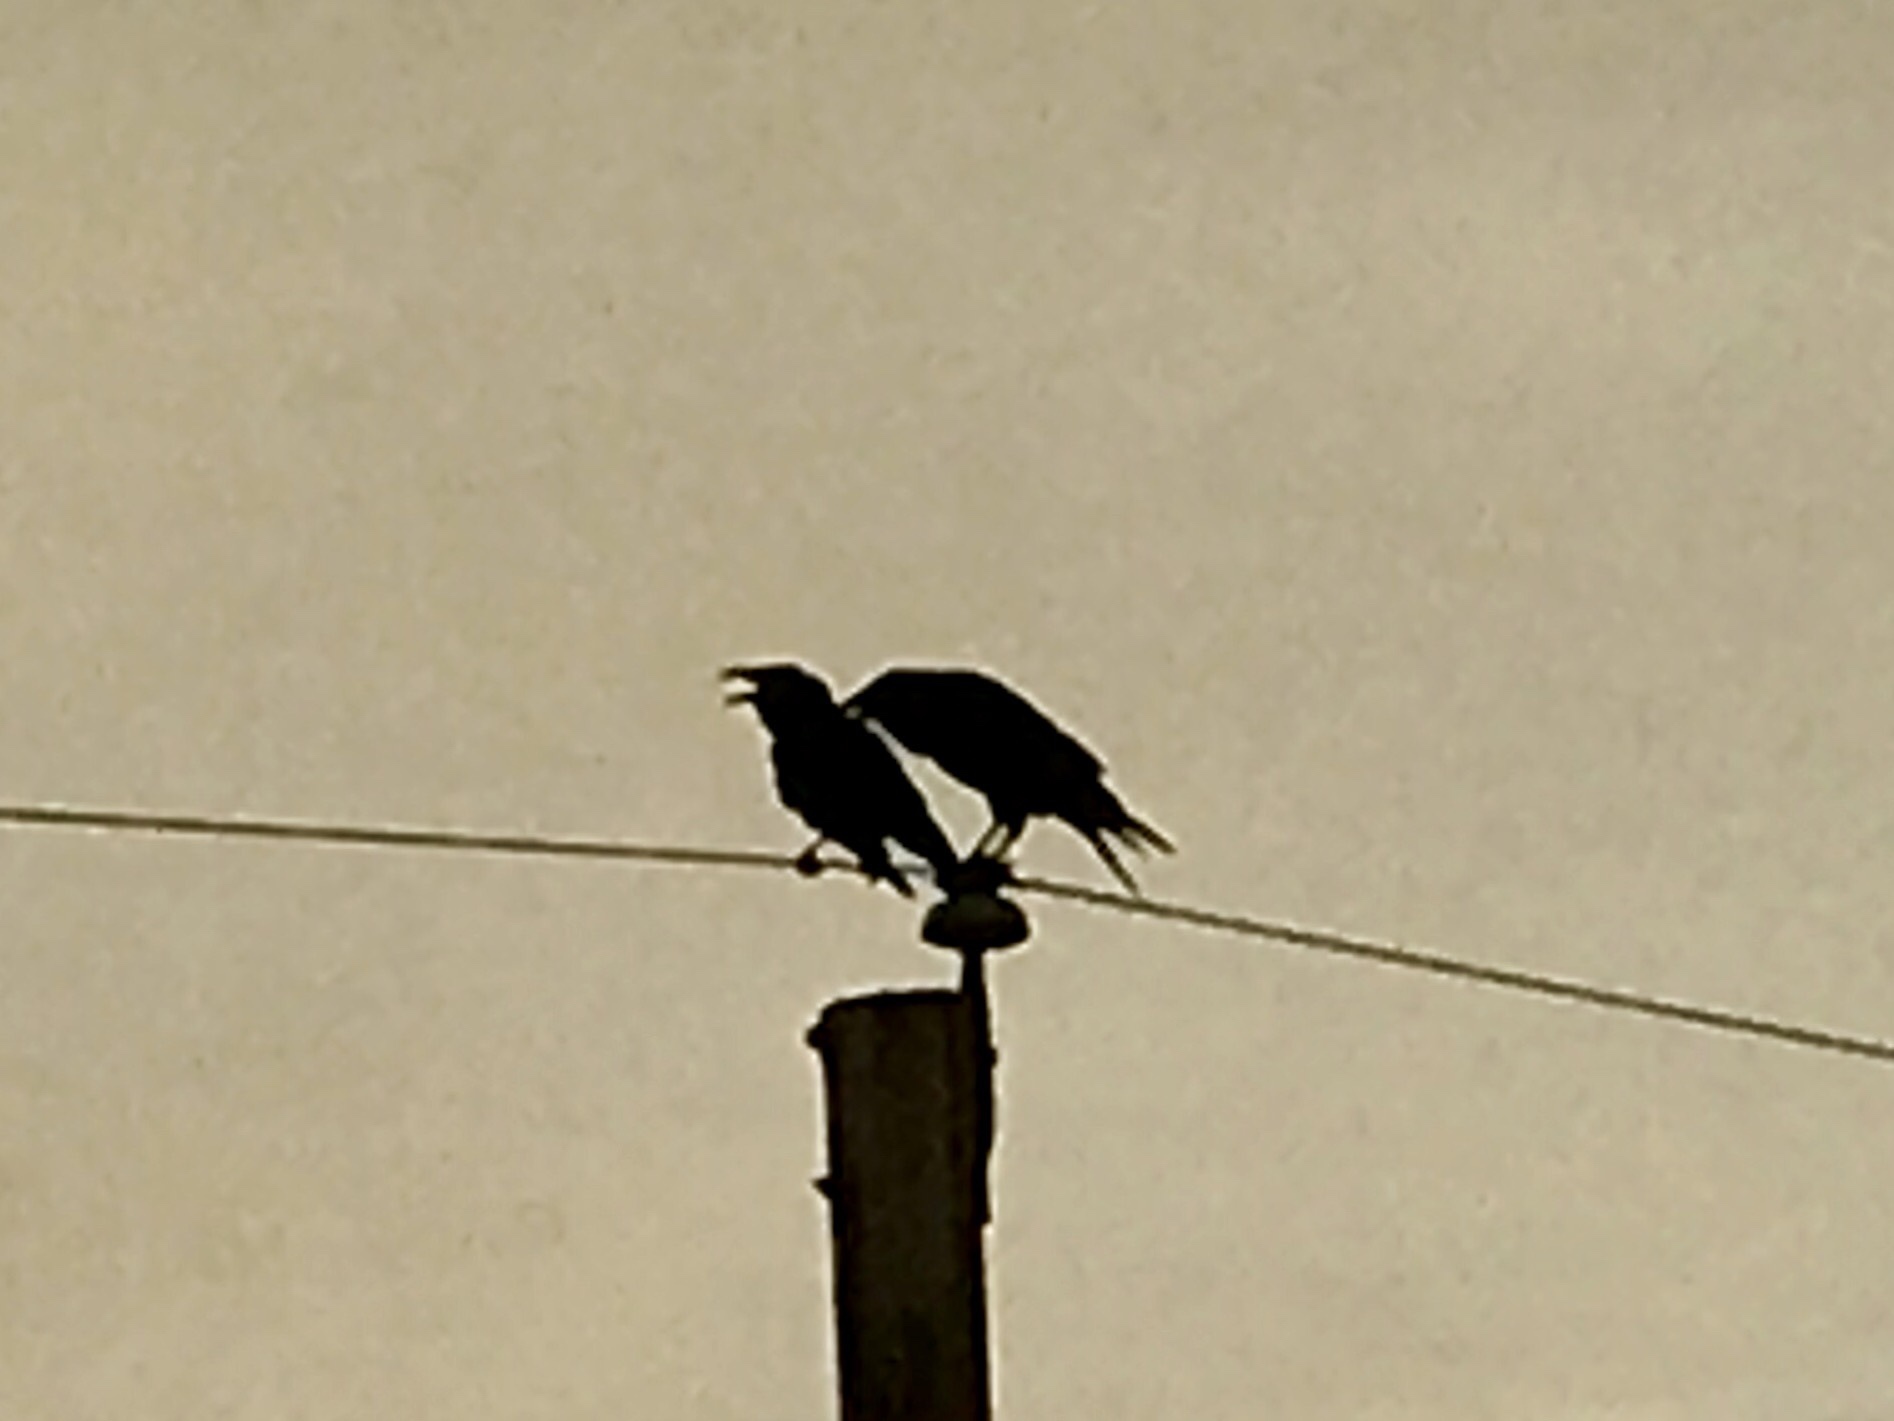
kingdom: Animalia
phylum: Chordata
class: Aves
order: Passeriformes
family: Corvidae
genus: Corvus
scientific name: Corvus corax
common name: Common raven
